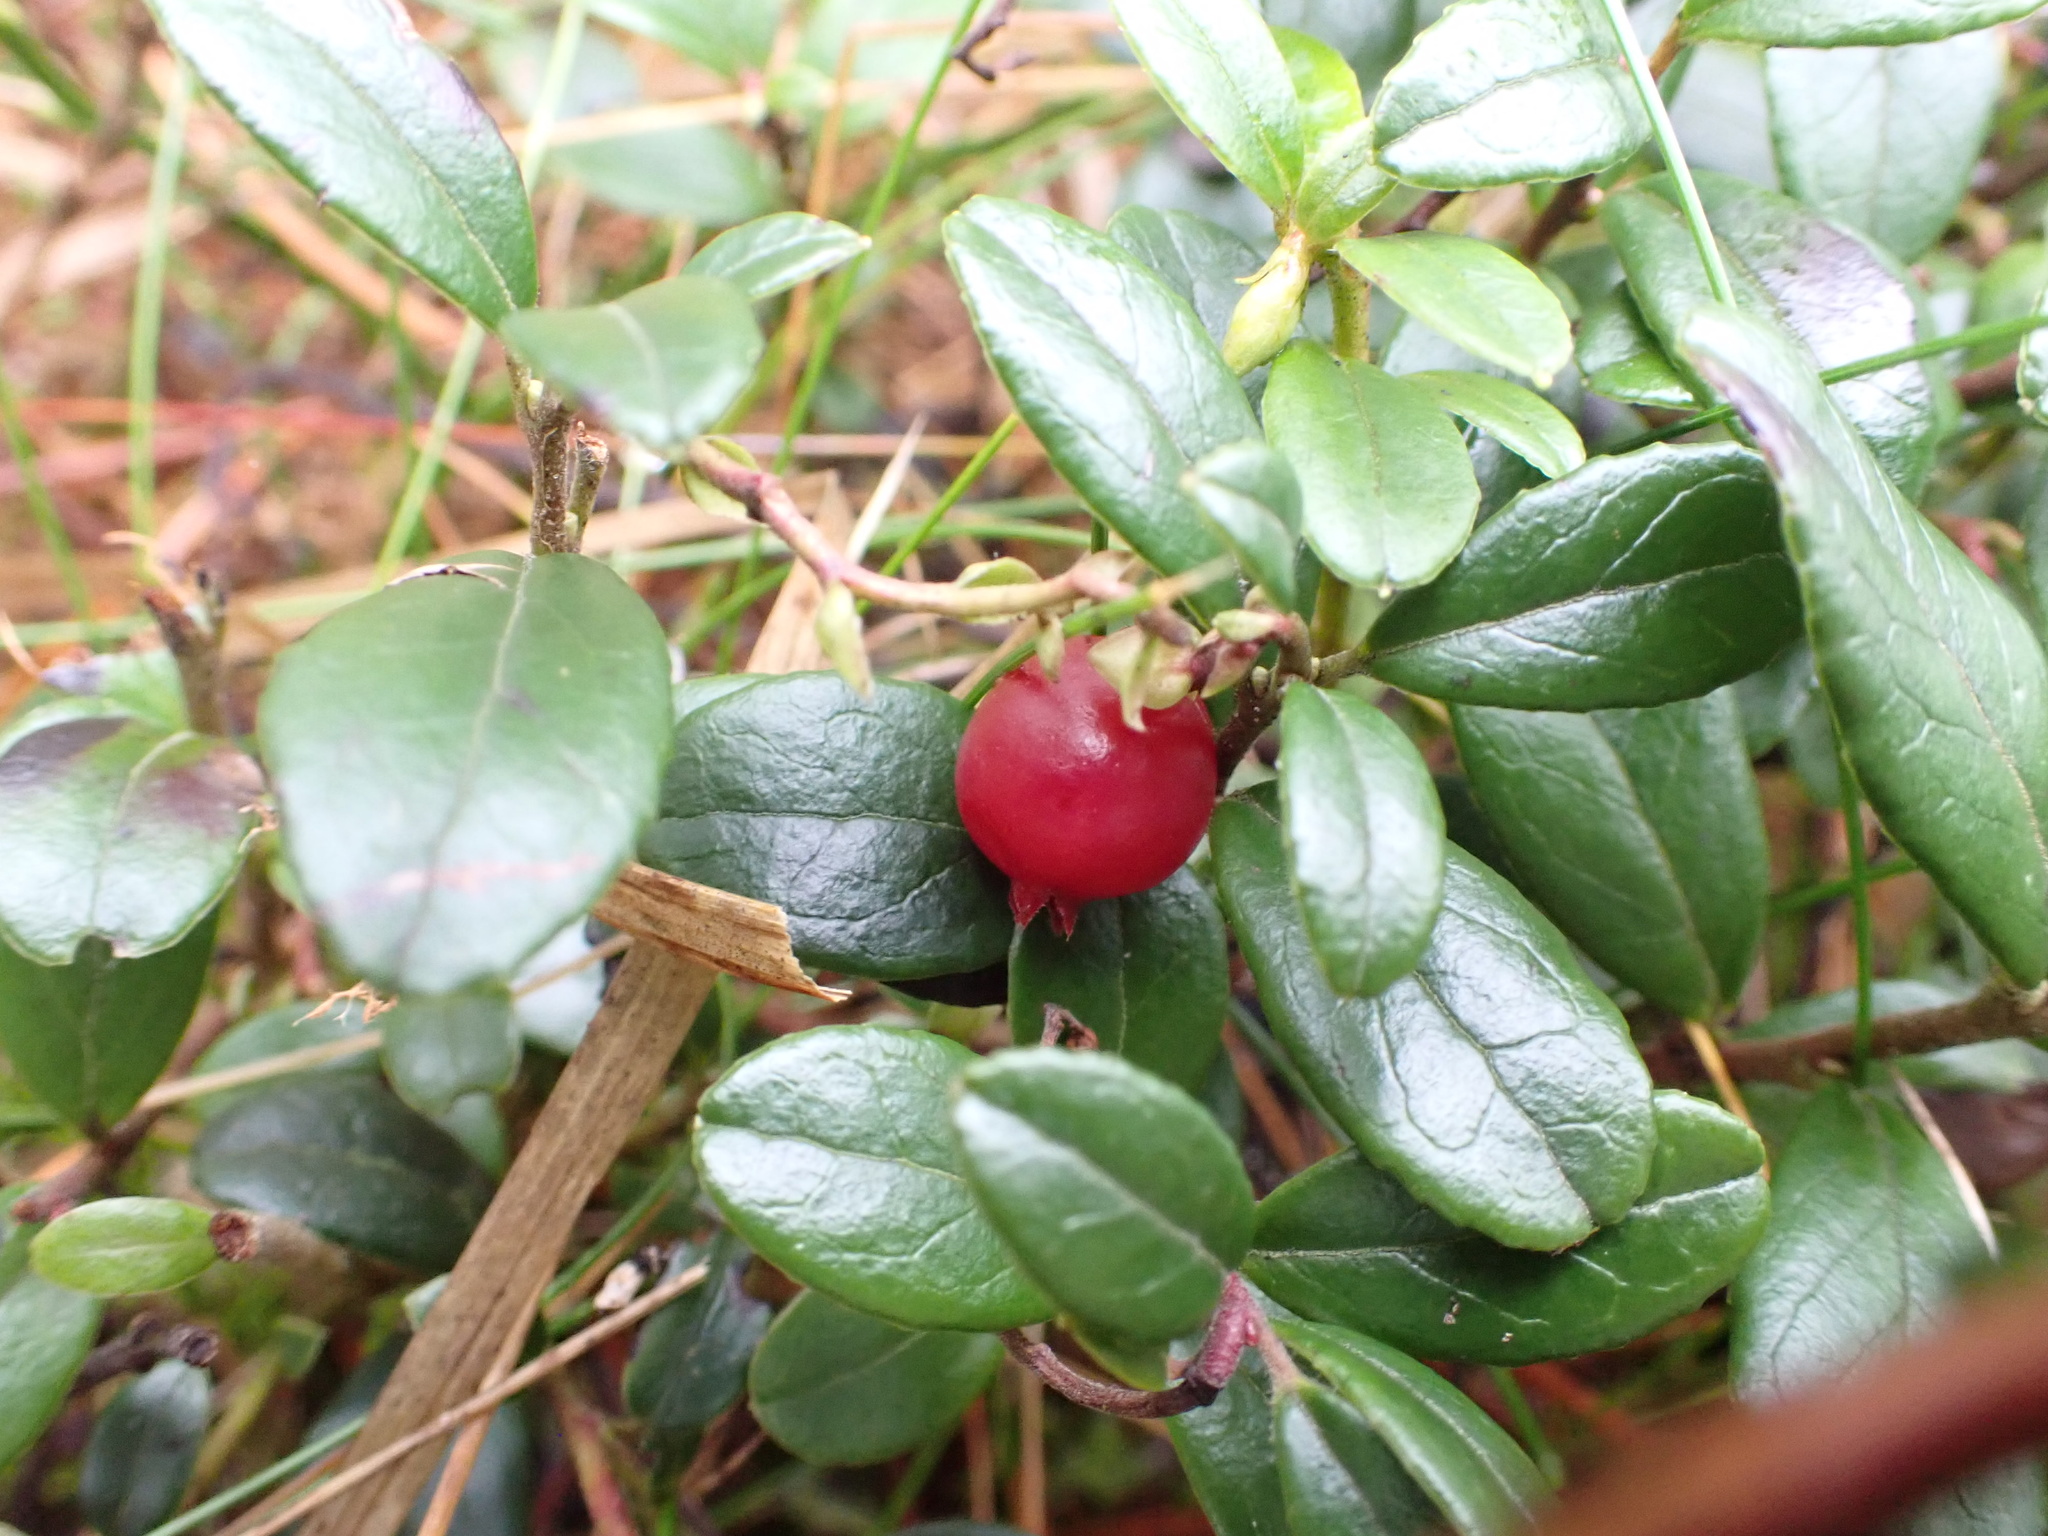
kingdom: Plantae
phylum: Tracheophyta
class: Magnoliopsida
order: Ericales
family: Ericaceae
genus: Vaccinium
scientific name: Vaccinium vitis-idaea
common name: Cowberry
